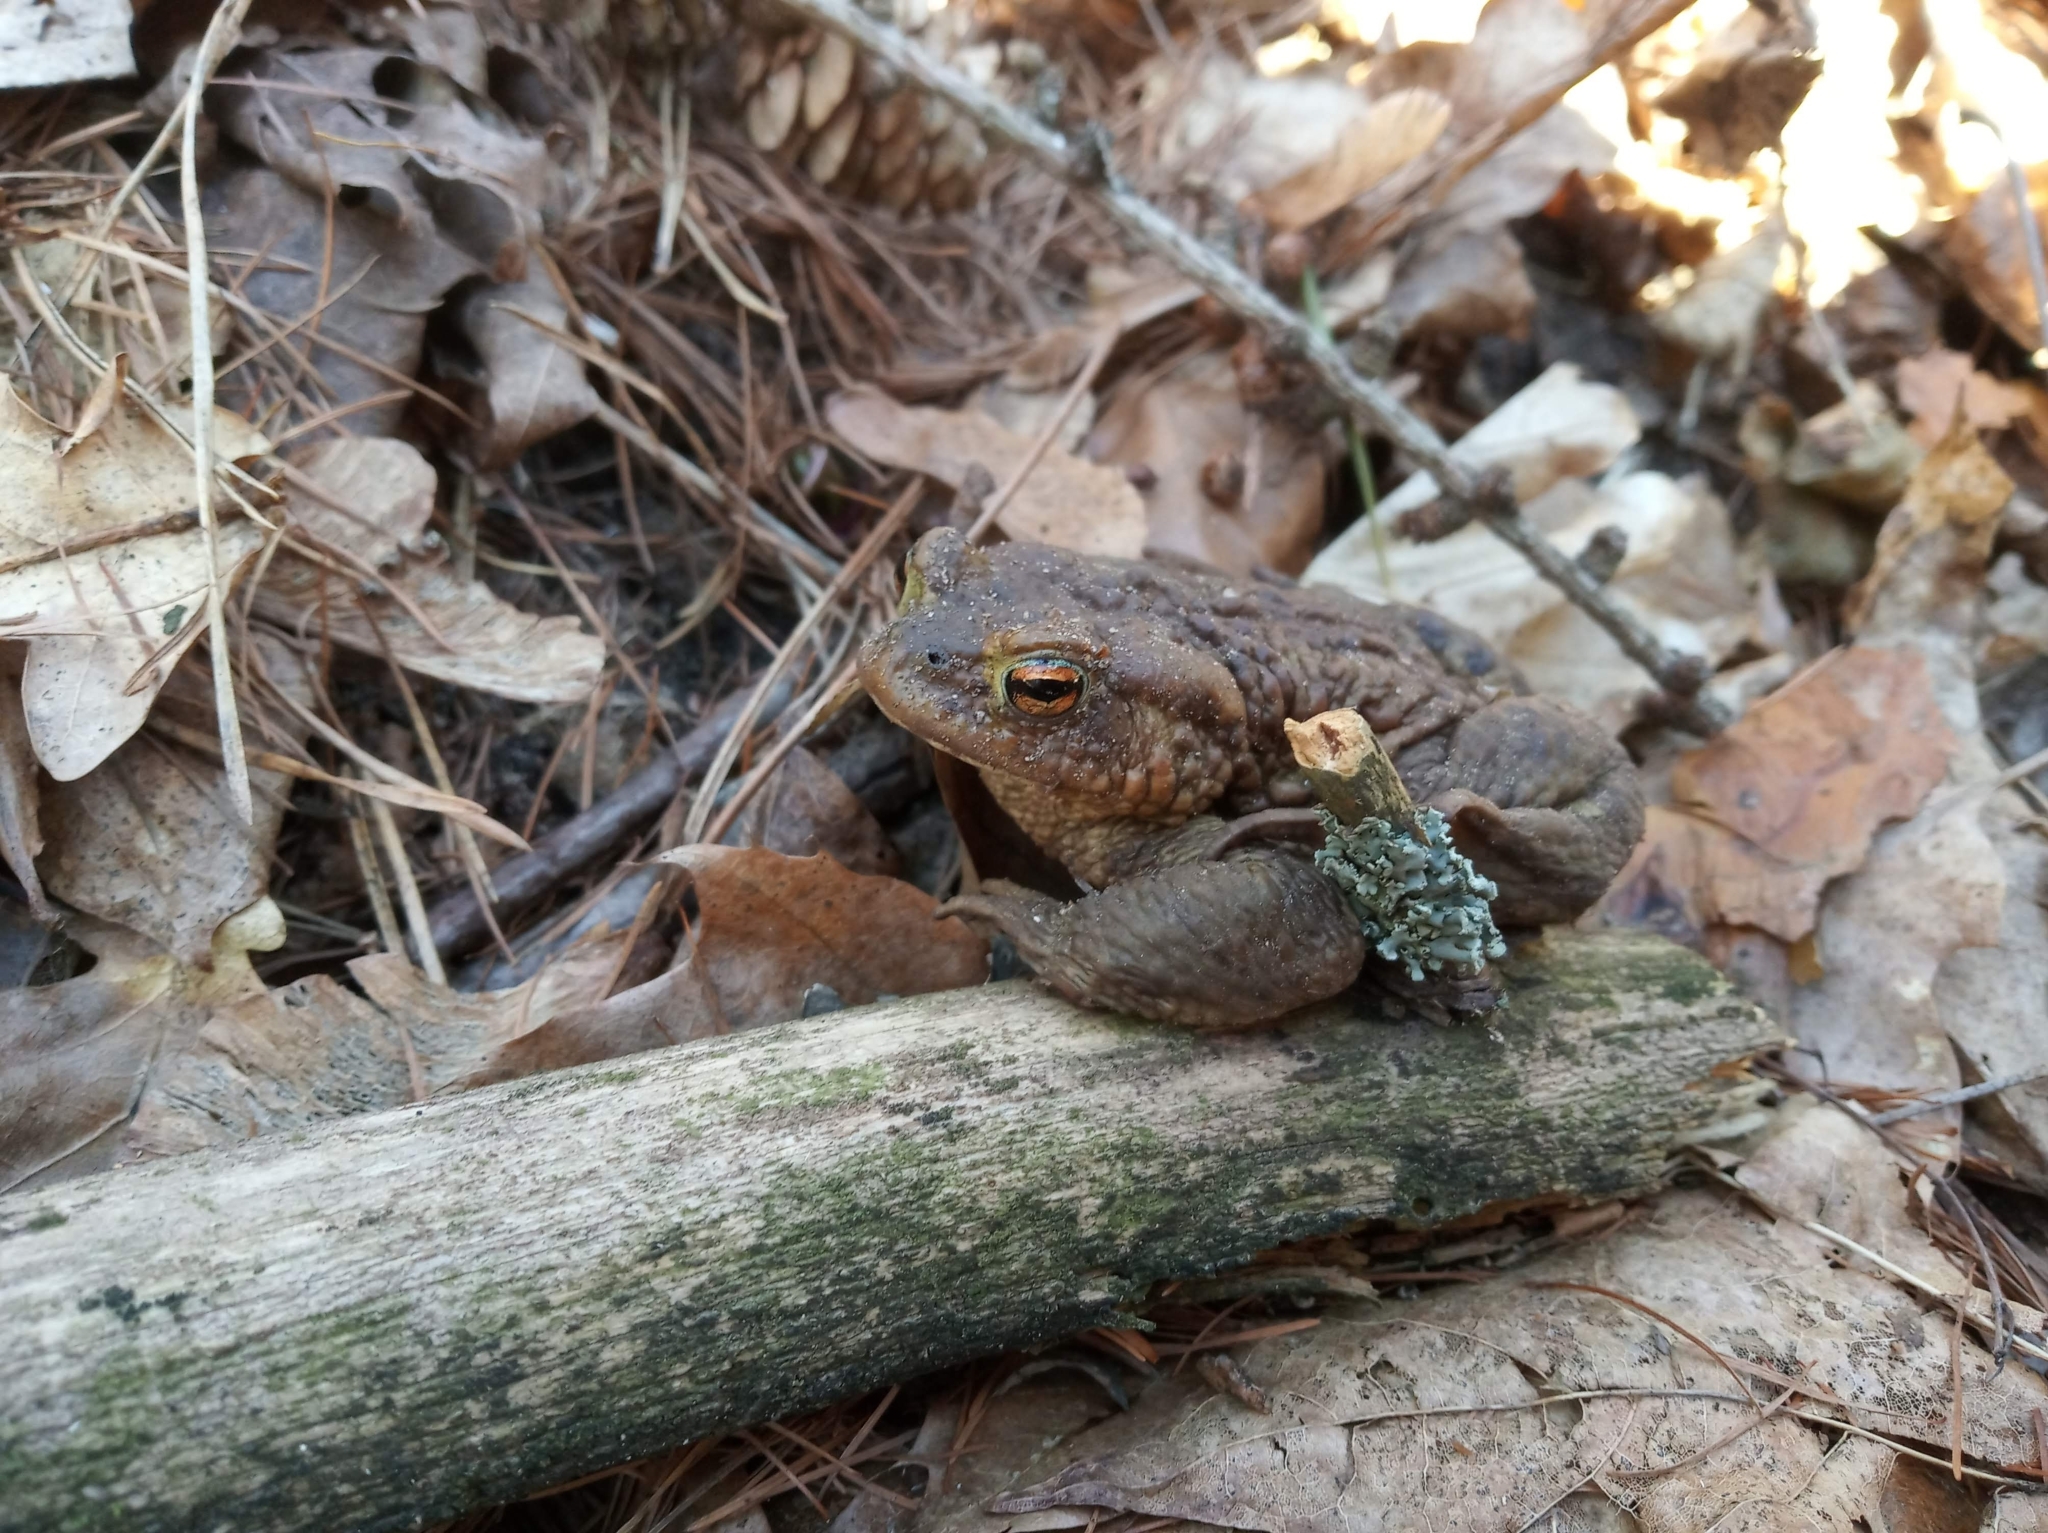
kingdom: Animalia
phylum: Chordata
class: Amphibia
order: Anura
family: Bufonidae
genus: Bufo
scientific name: Bufo bufo
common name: Common toad
